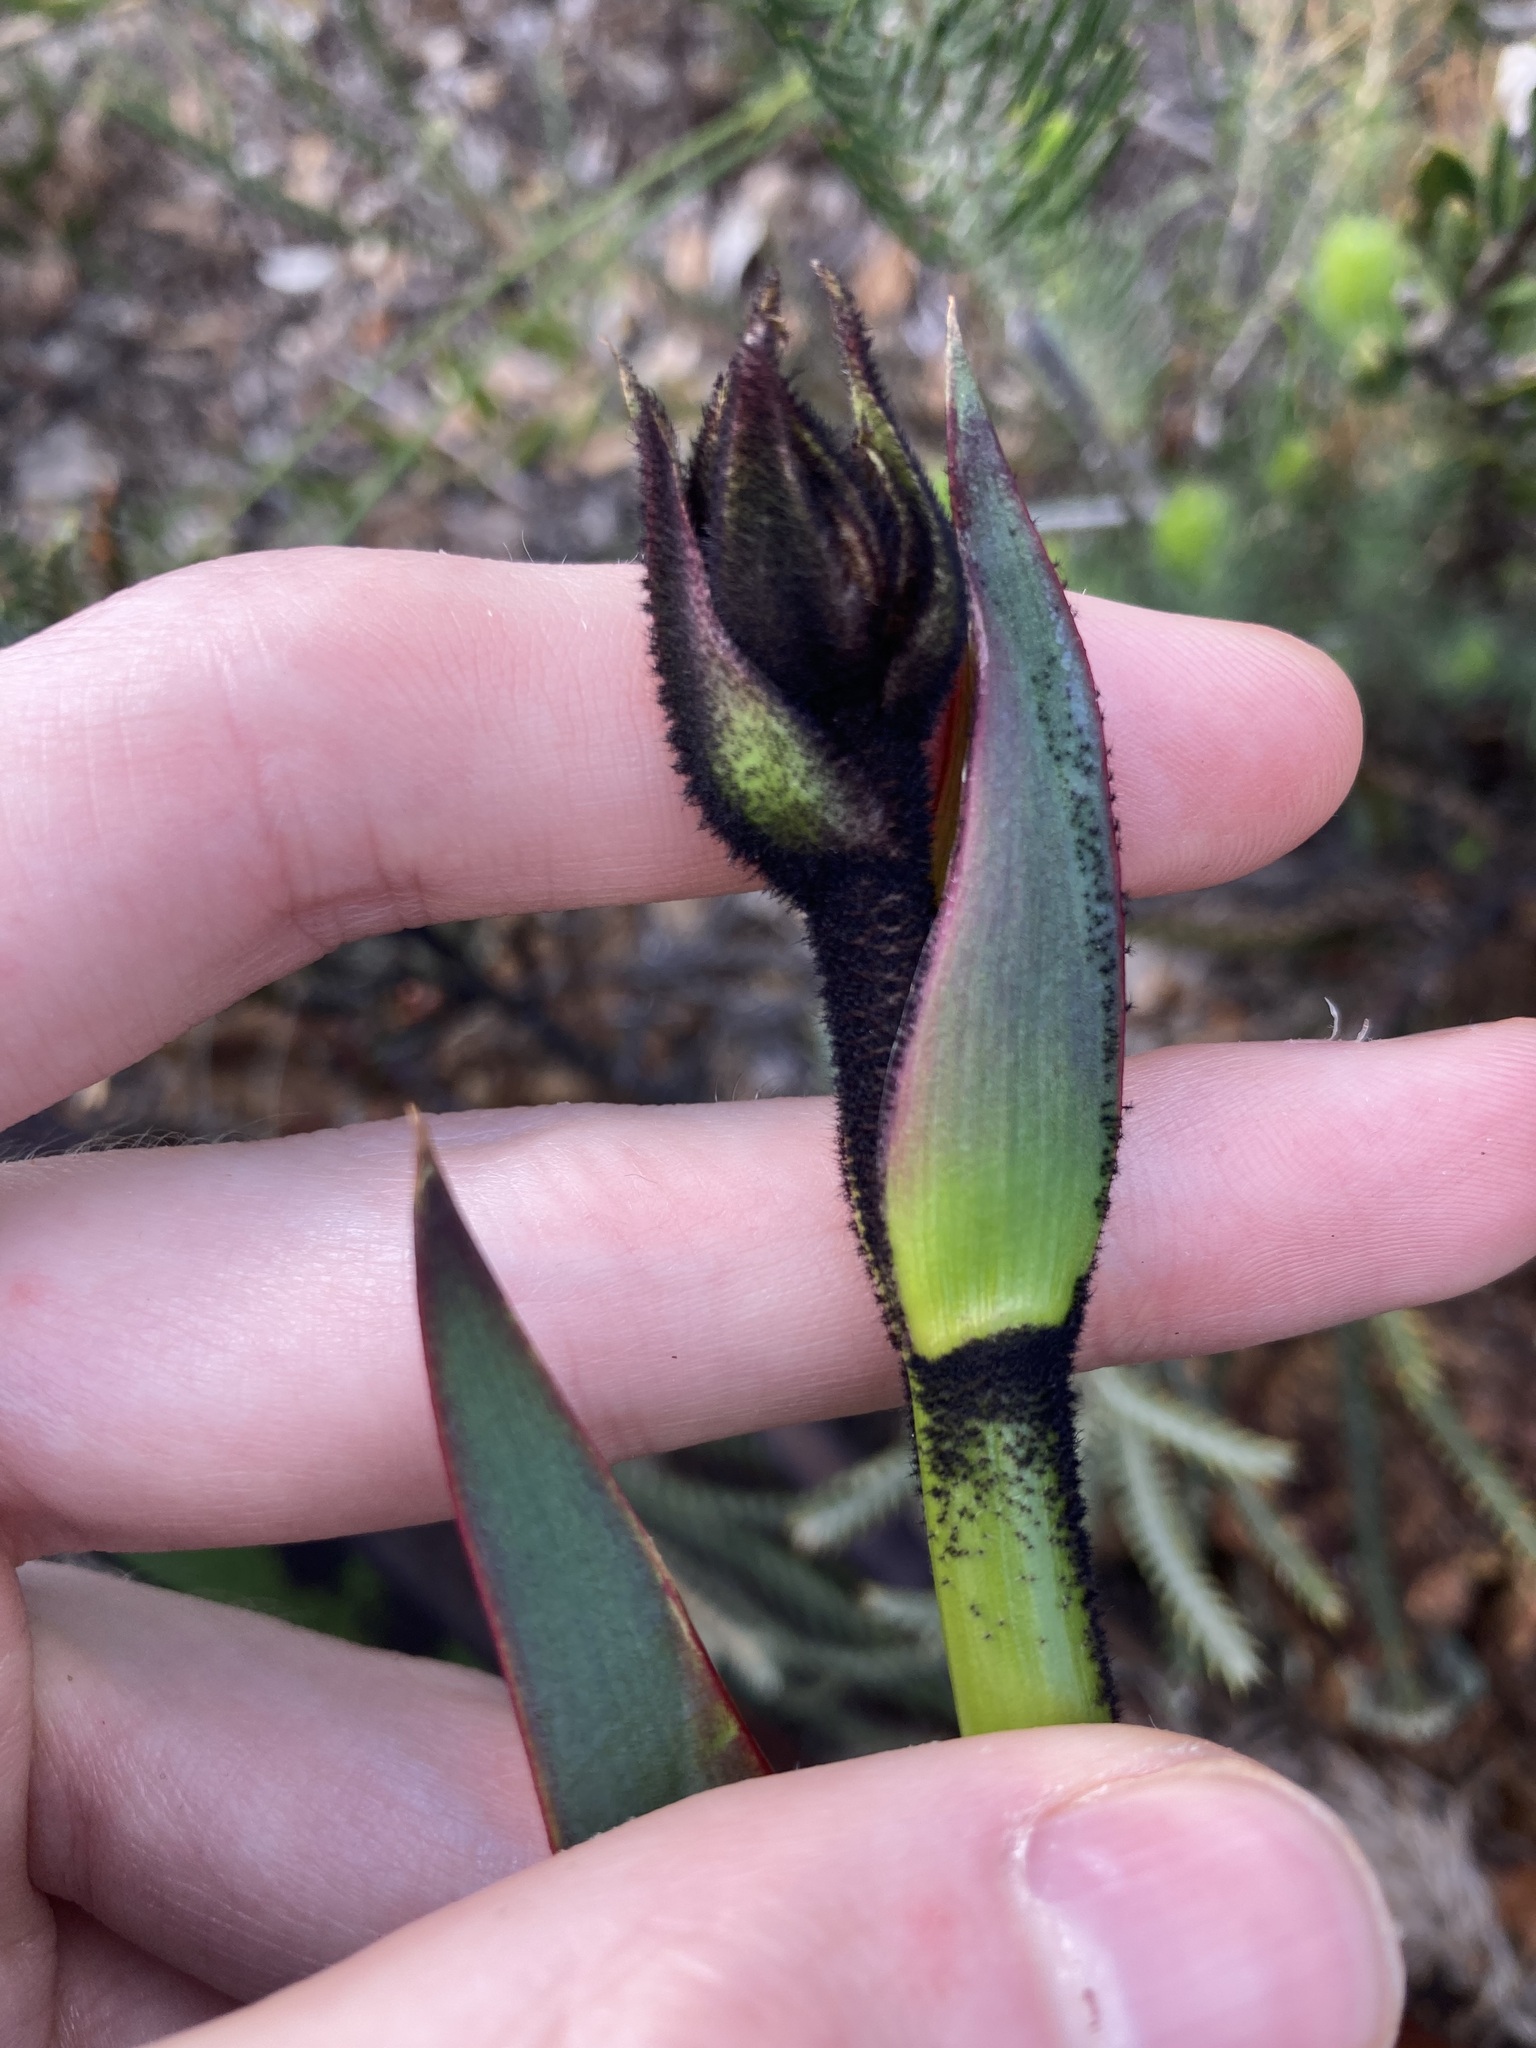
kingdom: Plantae
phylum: Tracheophyta
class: Liliopsida
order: Commelinales
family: Haemodoraceae
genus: Macropidia
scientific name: Macropidia fuliginosa
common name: Black kangaroo-paw
